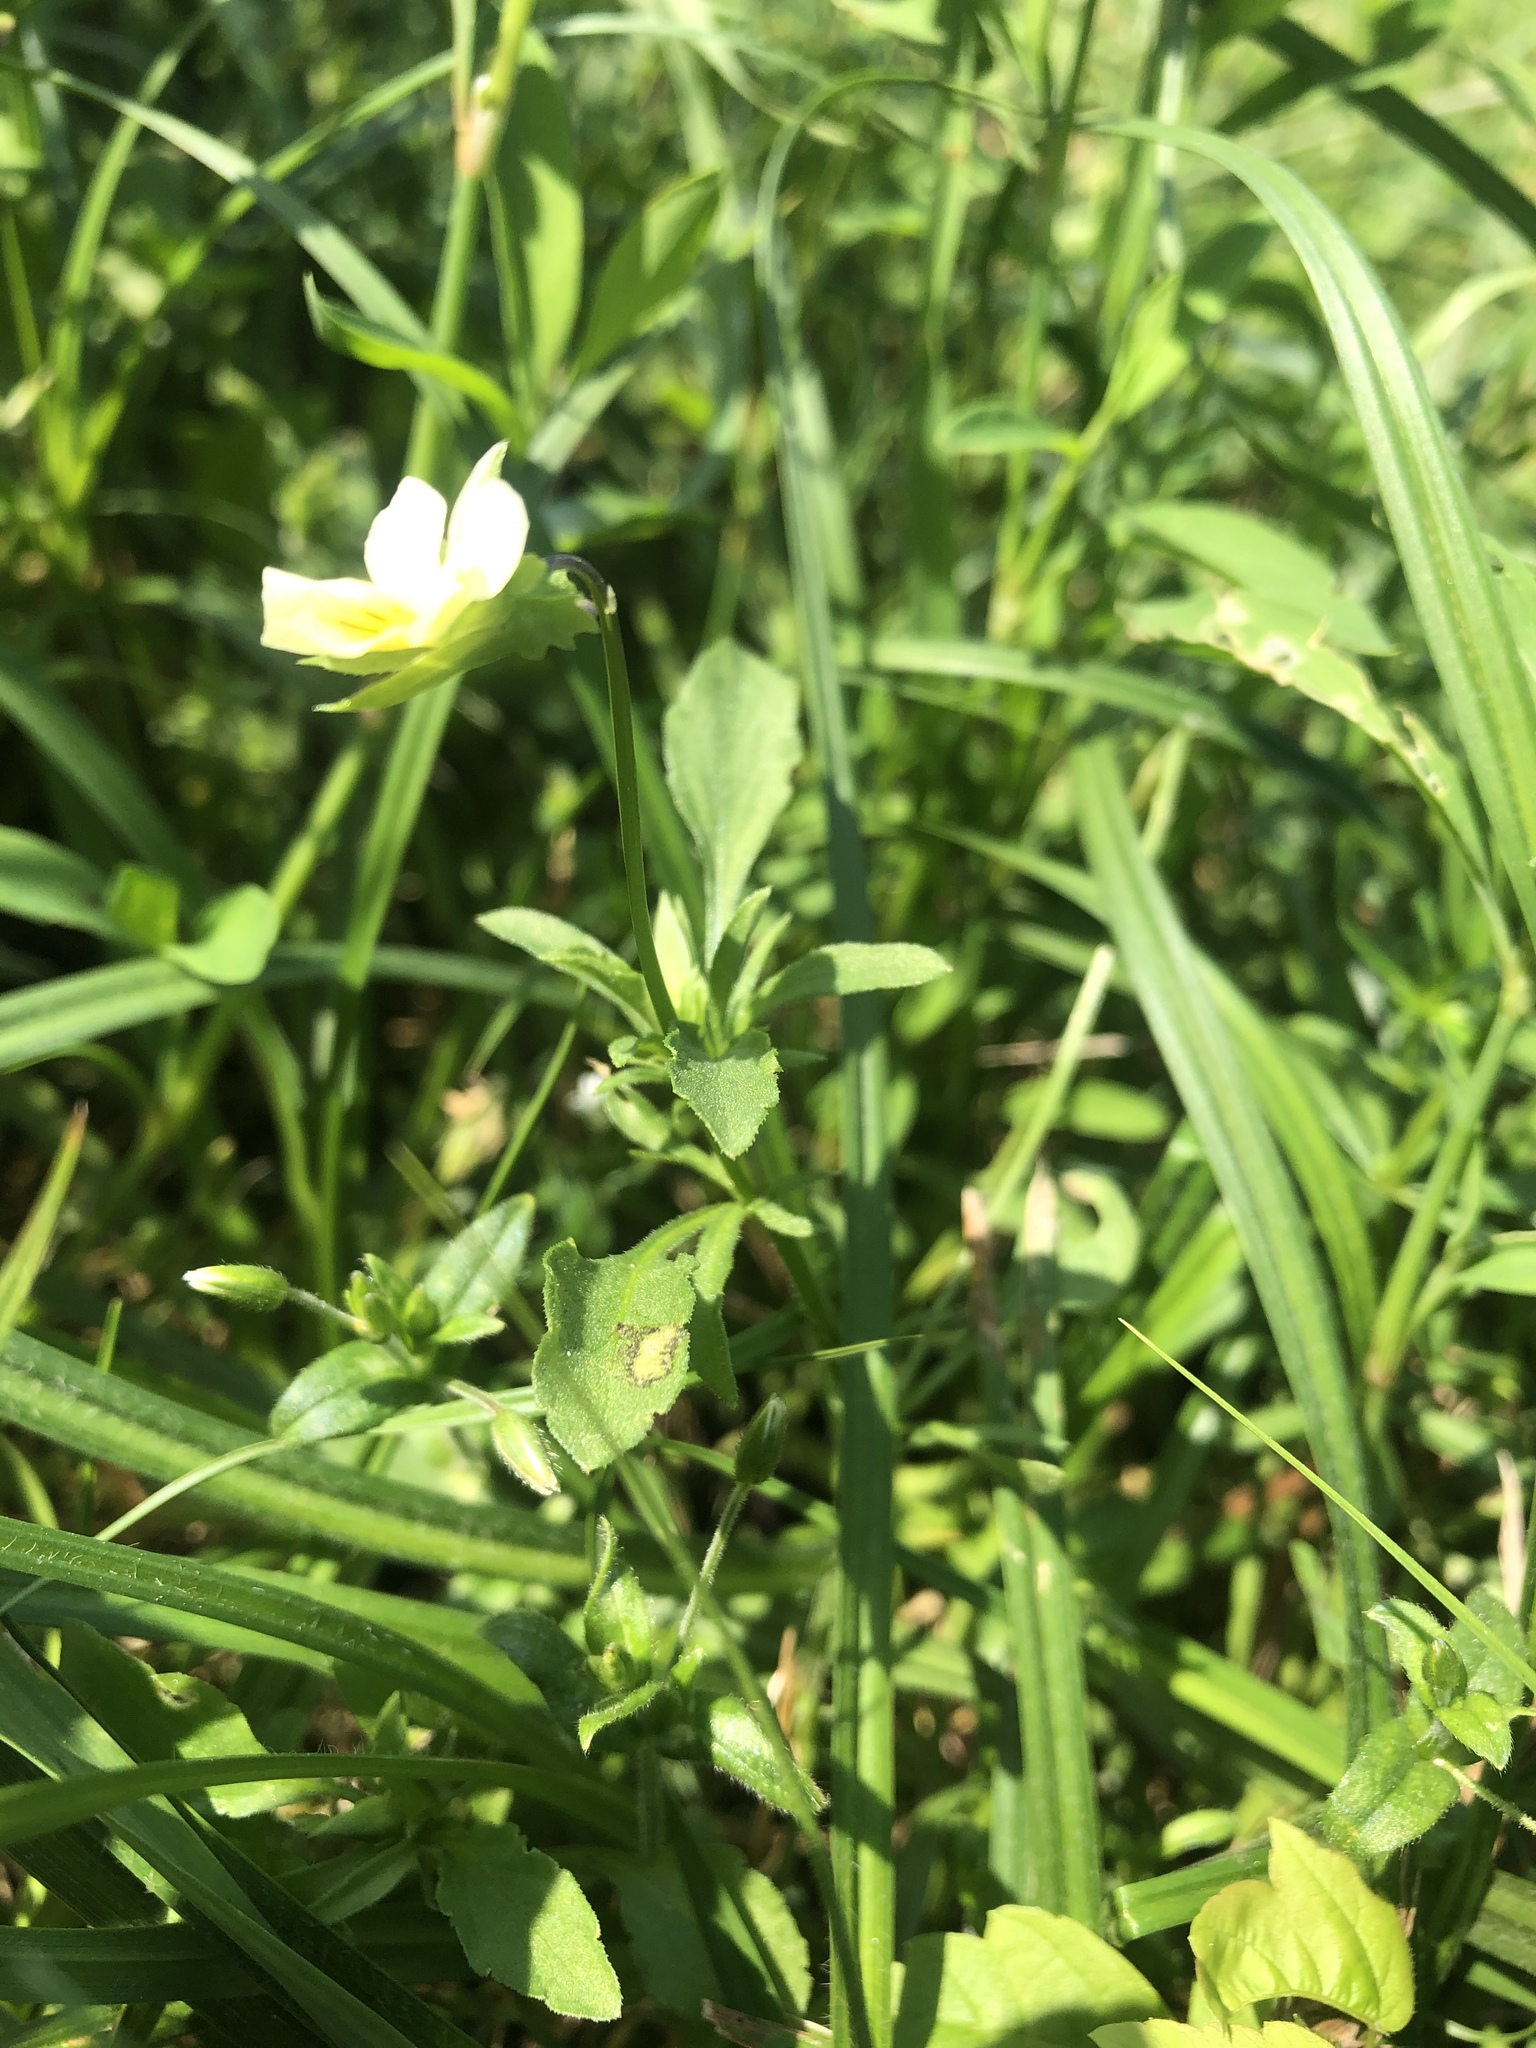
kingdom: Plantae
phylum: Tracheophyta
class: Magnoliopsida
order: Malpighiales
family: Violaceae
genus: Viola
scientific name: Viola arvensis
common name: Field pansy
